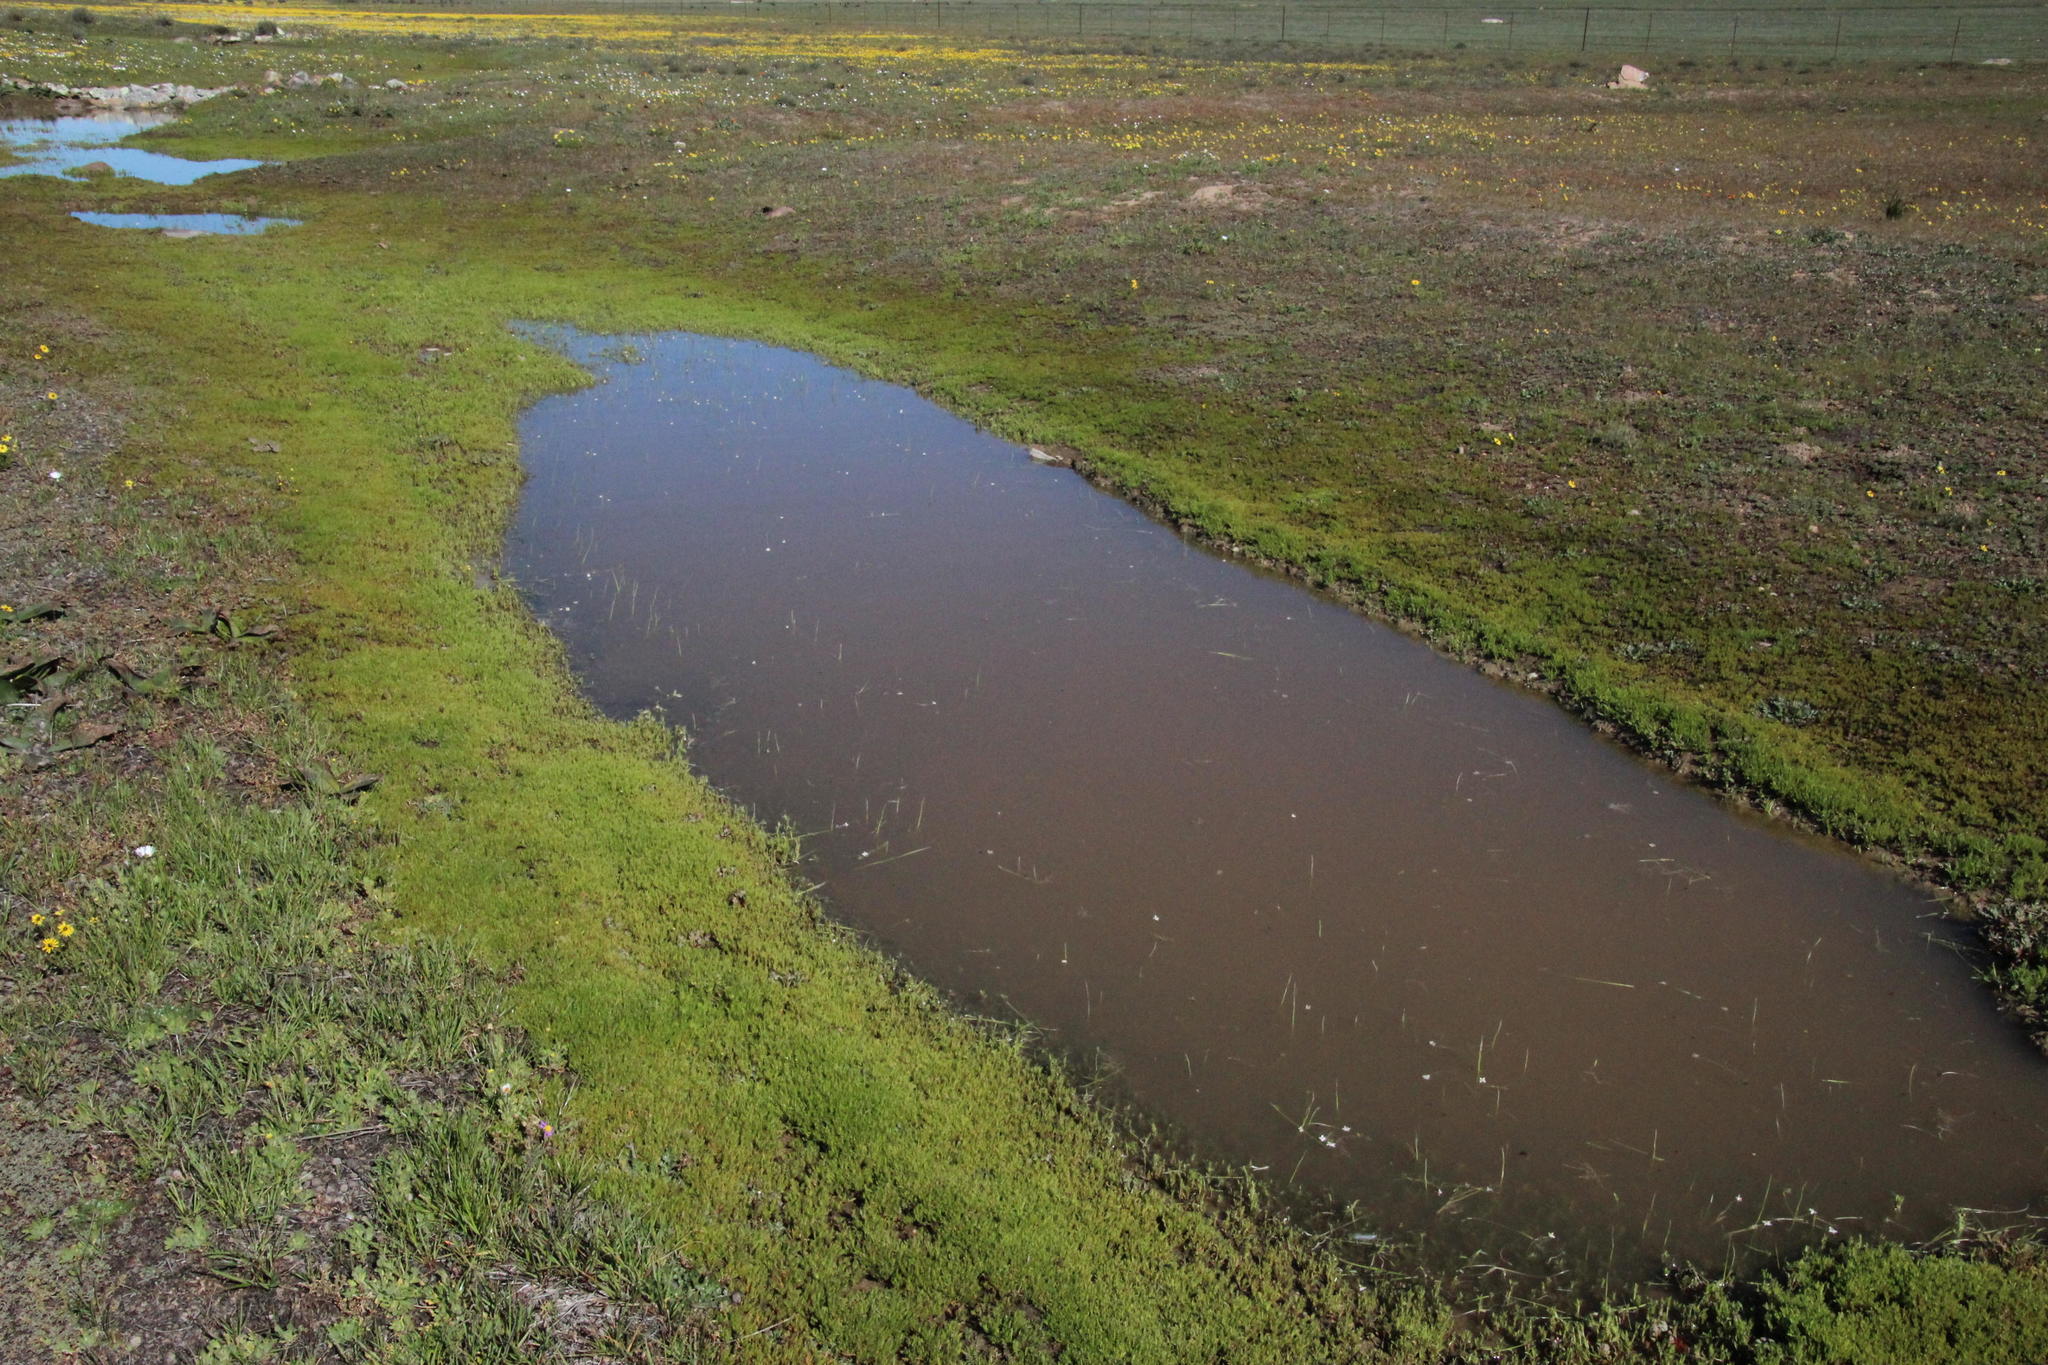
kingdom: Plantae
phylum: Tracheophyta
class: Liliopsida
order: Asparagales
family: Hypoxidaceae
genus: Pauridia
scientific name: Pauridia aquatica
